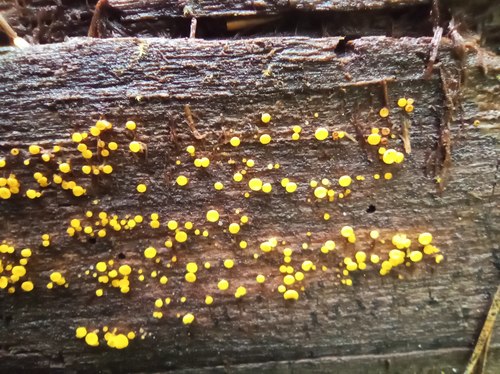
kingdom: Fungi
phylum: Ascomycota
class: Leotiomycetes
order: Helotiales
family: Pezizellaceae
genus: Calycina
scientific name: Calycina citrina
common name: Yellow fairy cups
